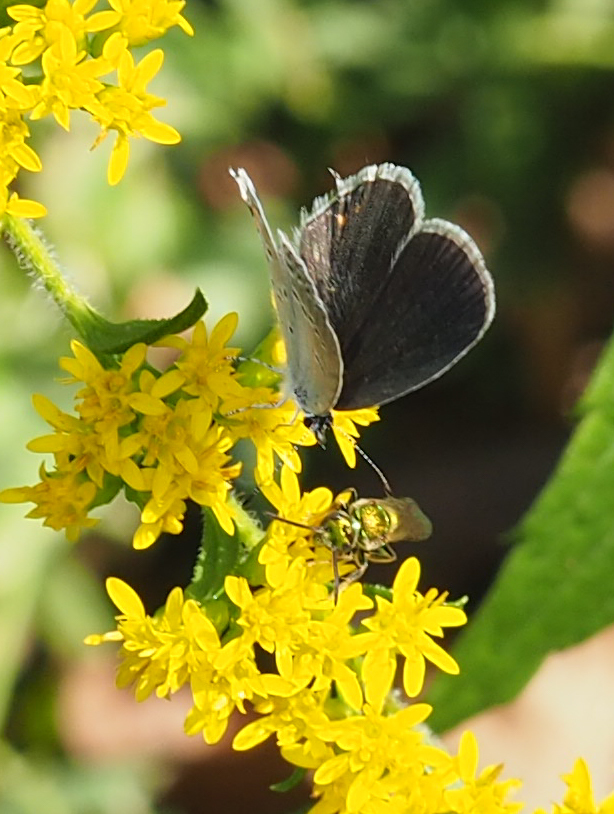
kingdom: Animalia
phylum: Arthropoda
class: Insecta
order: Lepidoptera
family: Lycaenidae
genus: Elkalyce
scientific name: Elkalyce comyntas
